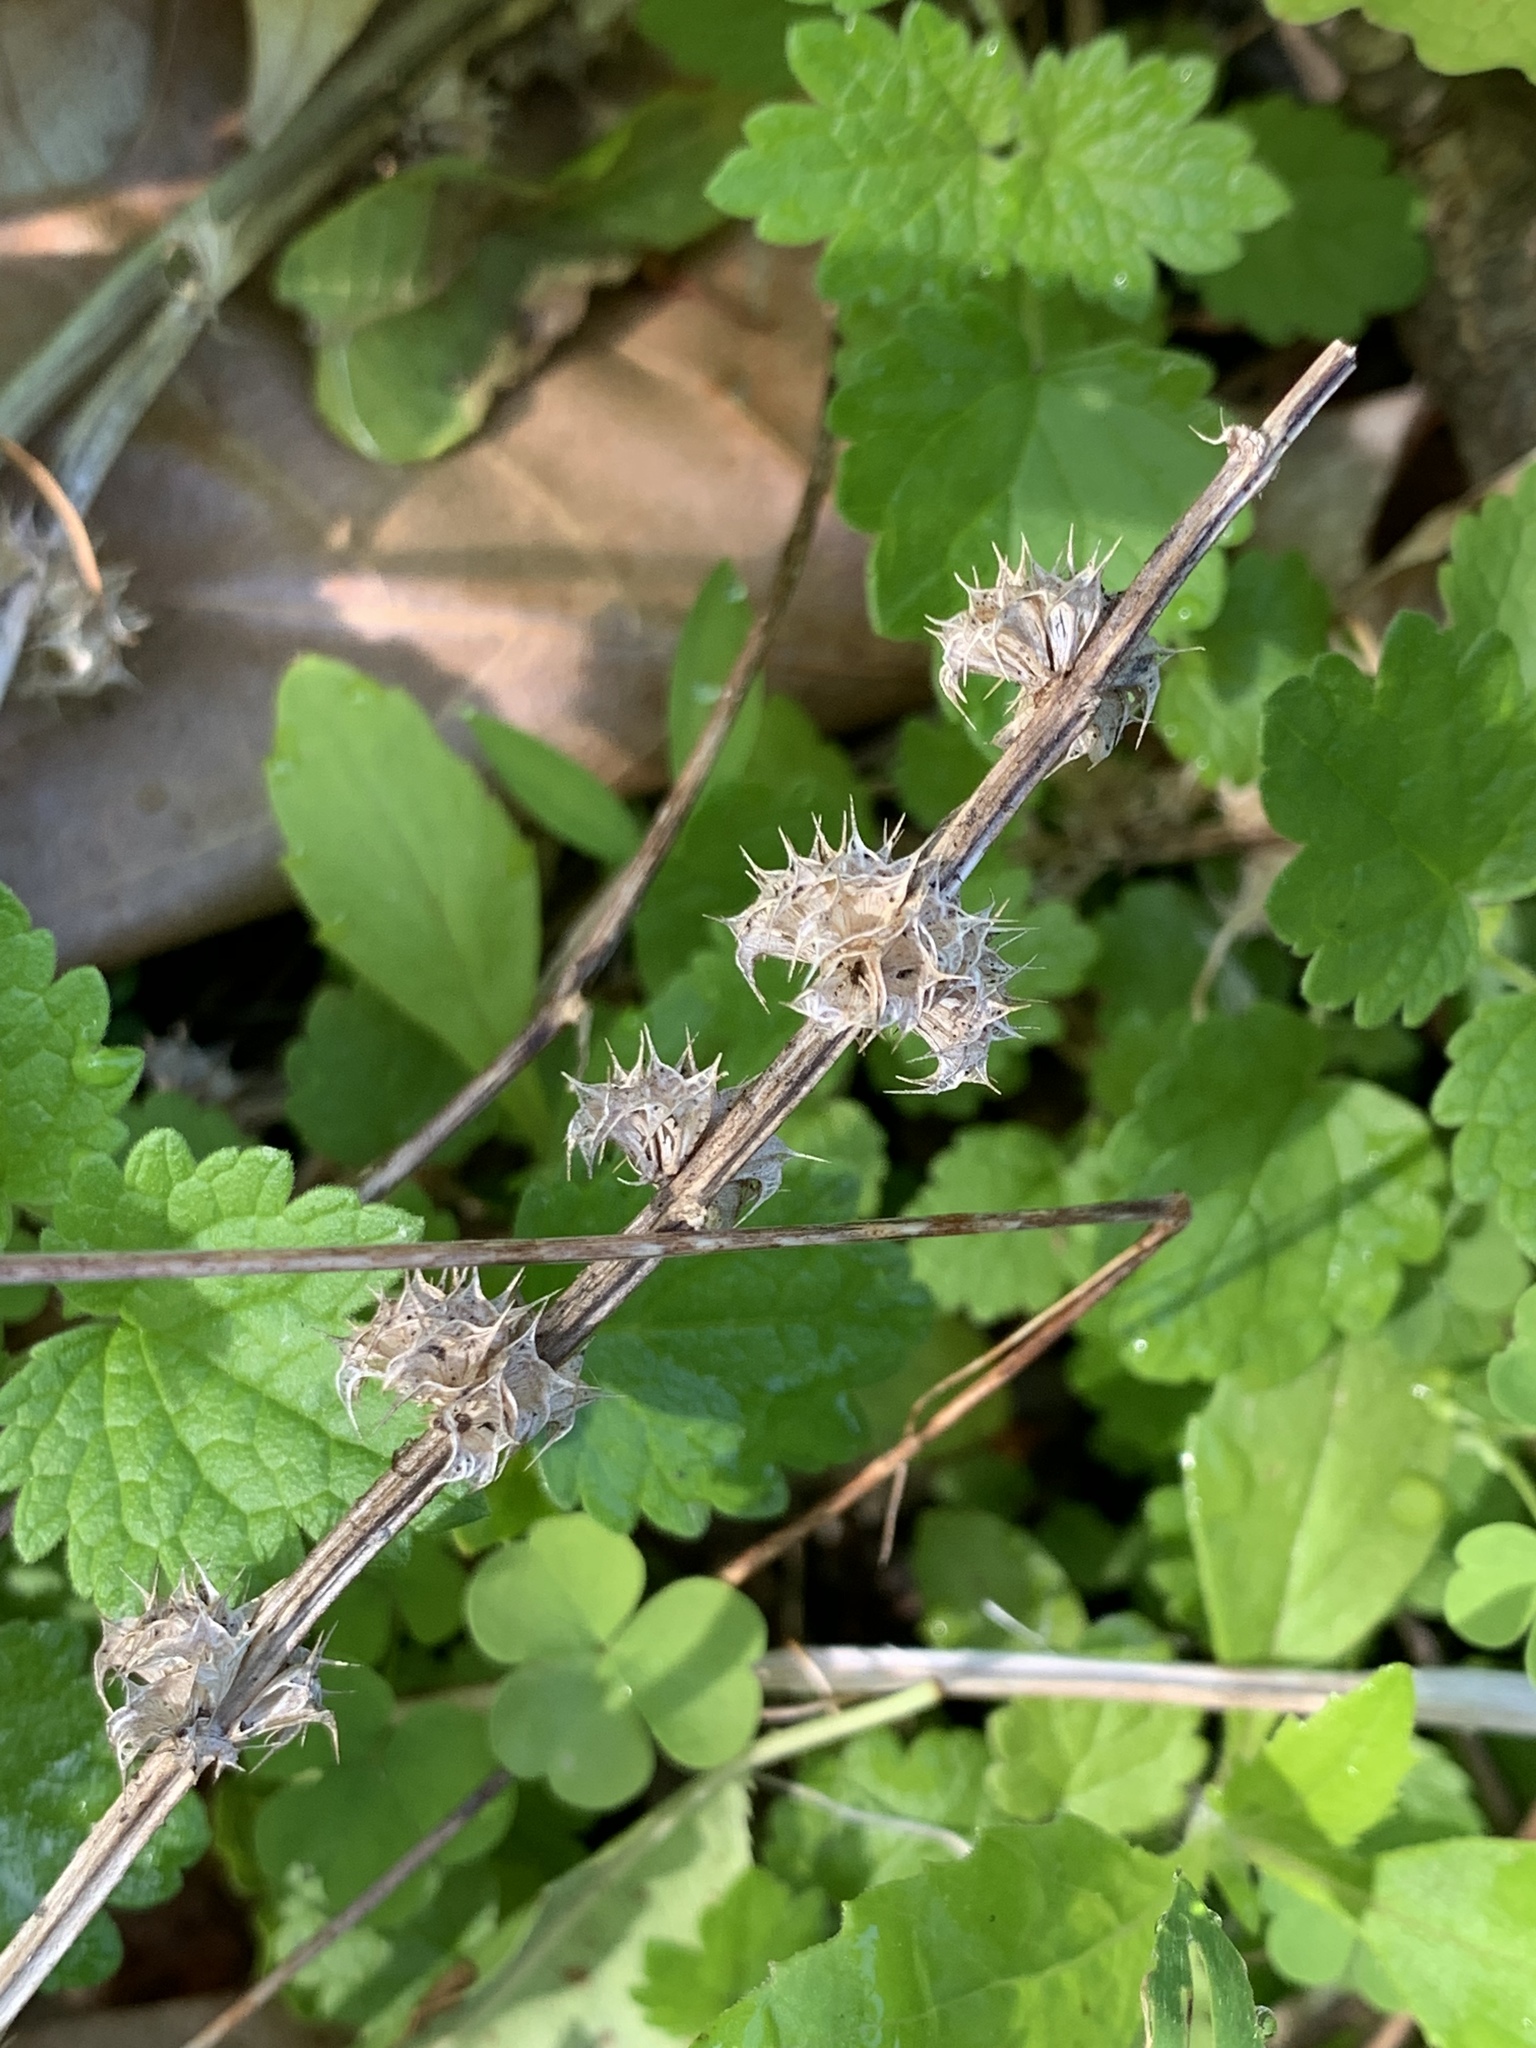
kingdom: Plantae
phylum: Tracheophyta
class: Magnoliopsida
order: Lamiales
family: Lamiaceae
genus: Leonurus
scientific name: Leonurus cardiaca
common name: Motherwort
